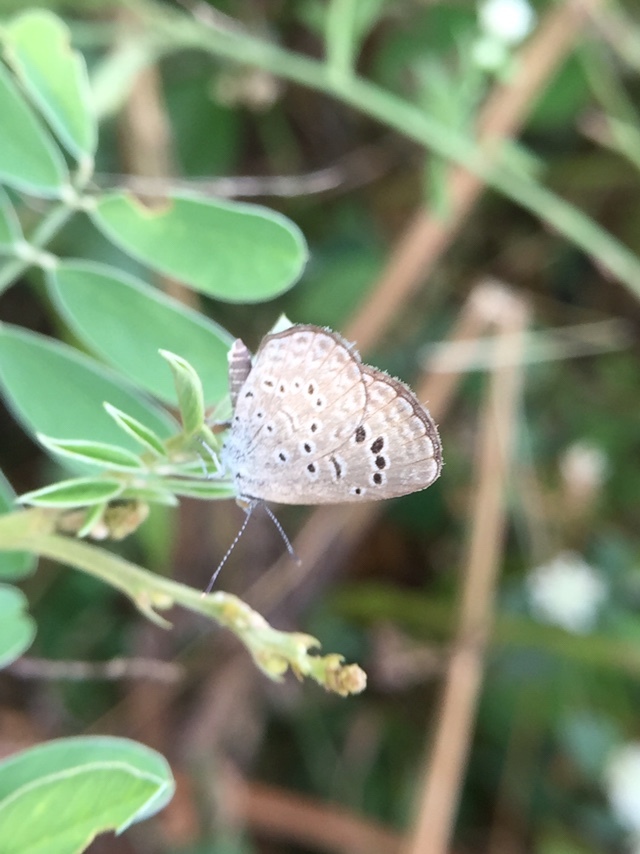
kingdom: Animalia
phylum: Arthropoda
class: Insecta
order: Lepidoptera
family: Lycaenidae
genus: Zizina
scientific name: Zizina otis
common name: Lesser grass blue
